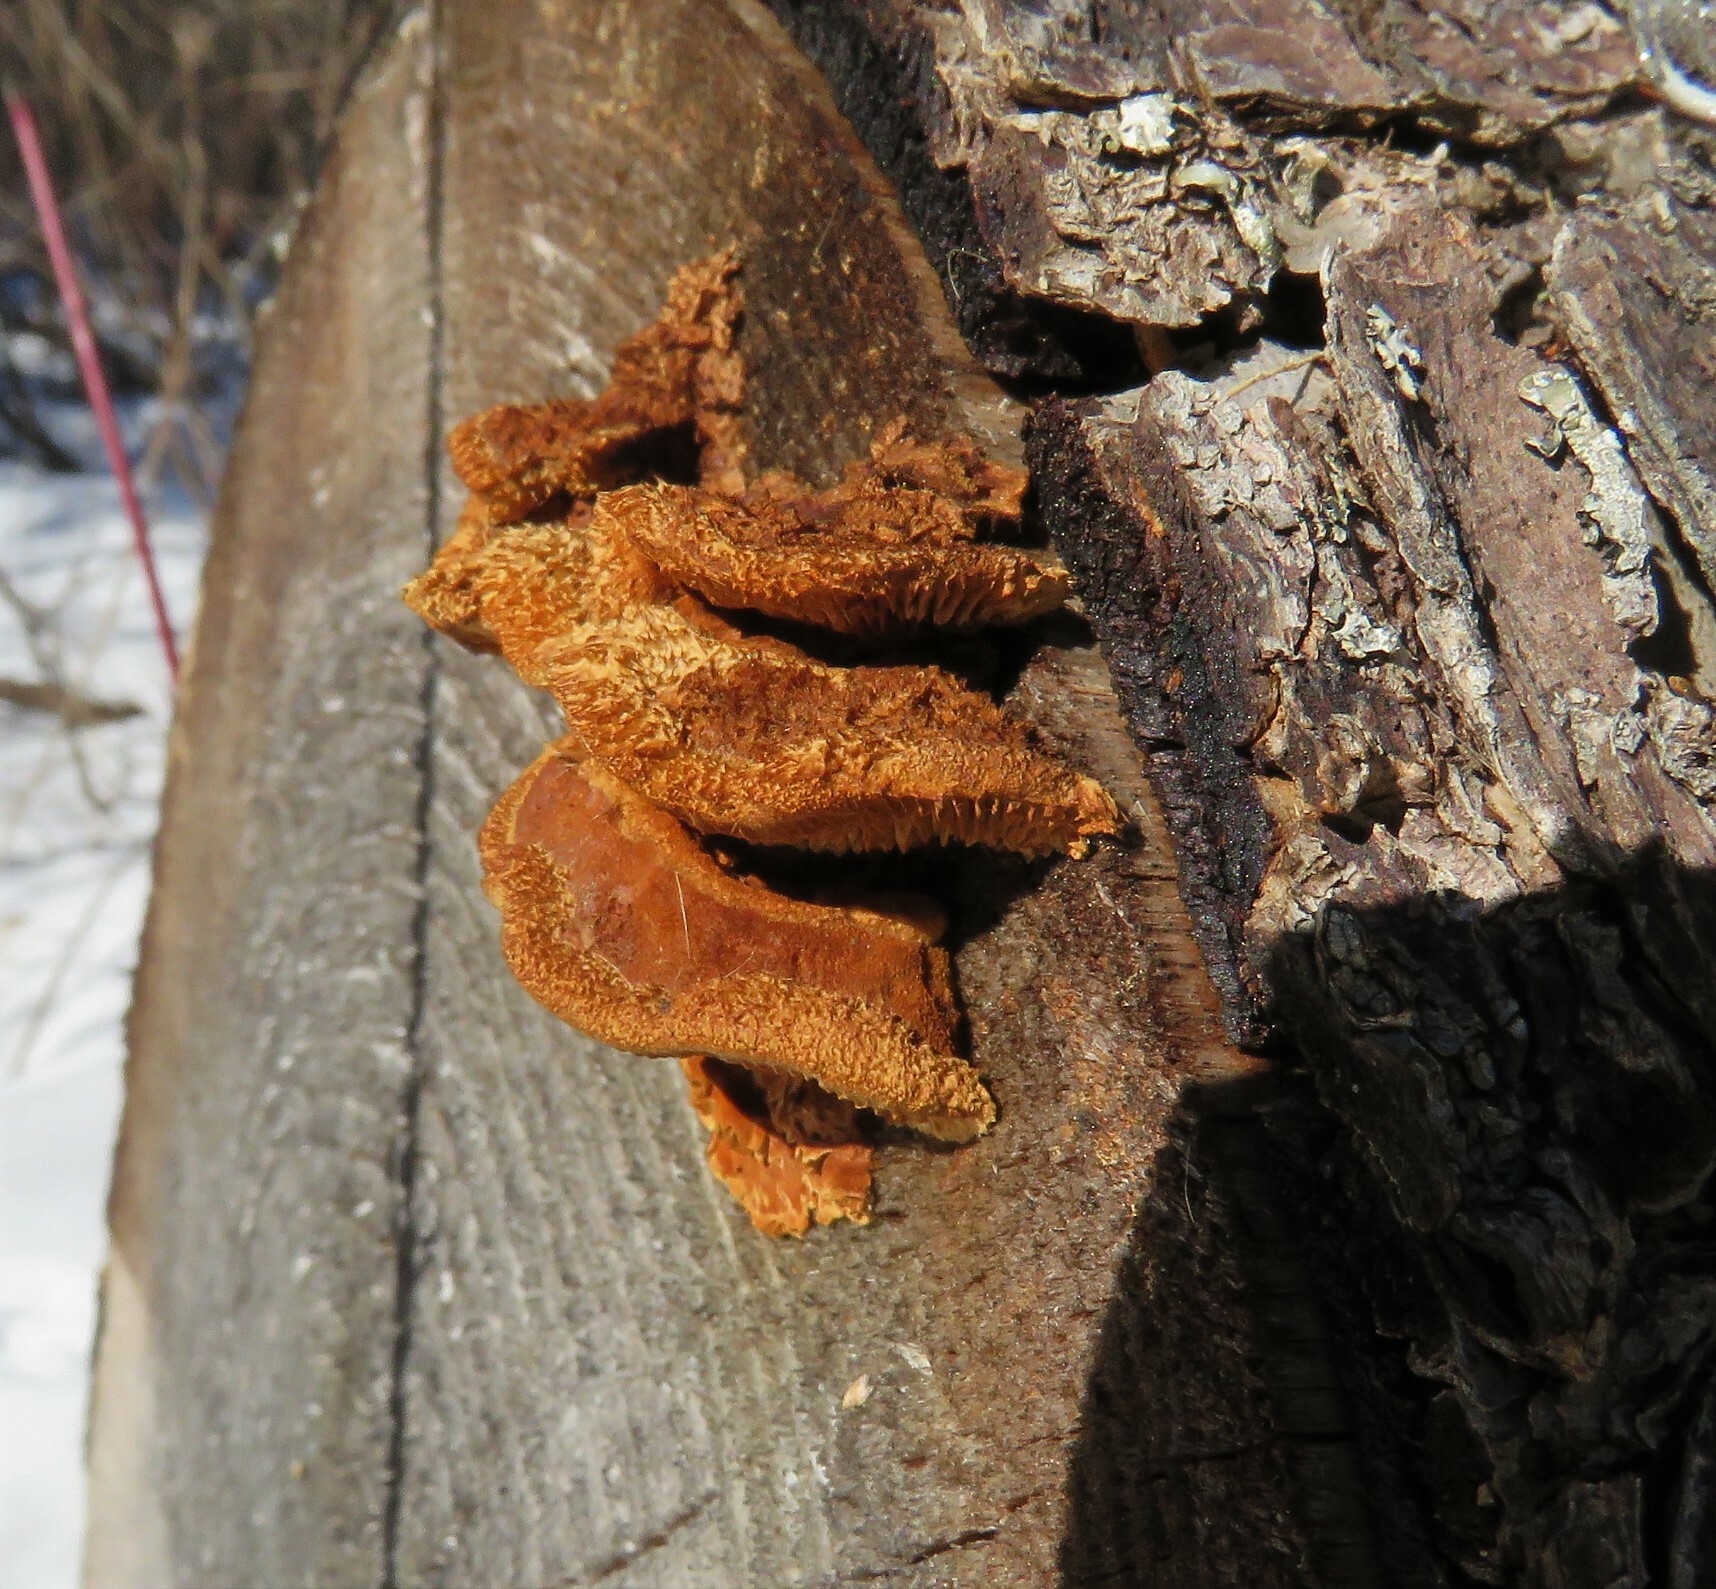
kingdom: Fungi
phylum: Basidiomycota
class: Agaricomycetes
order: Gloeophyllales
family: Gloeophyllaceae
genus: Gloeophyllum
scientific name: Gloeophyllum sepiarium
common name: Conifer mazegill
